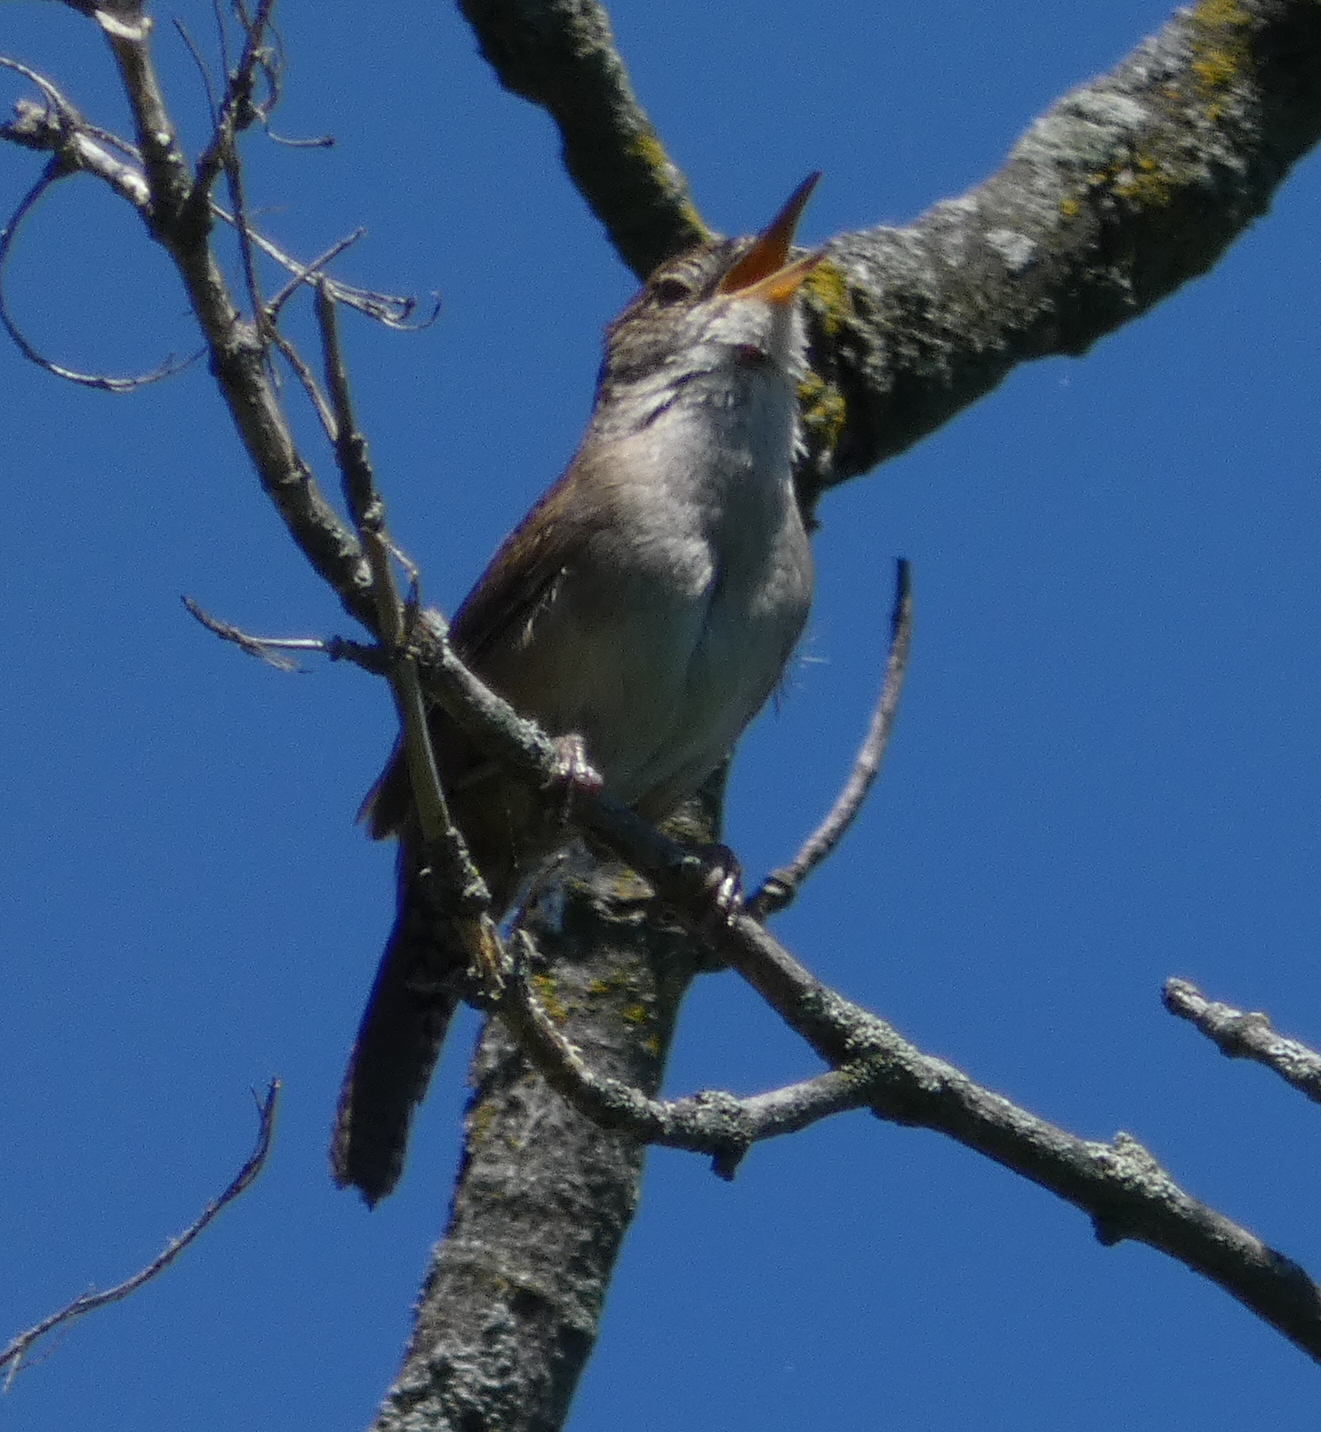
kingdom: Animalia
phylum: Chordata
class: Aves
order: Passeriformes
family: Troglodytidae
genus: Troglodytes
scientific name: Troglodytes aedon
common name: House wren
